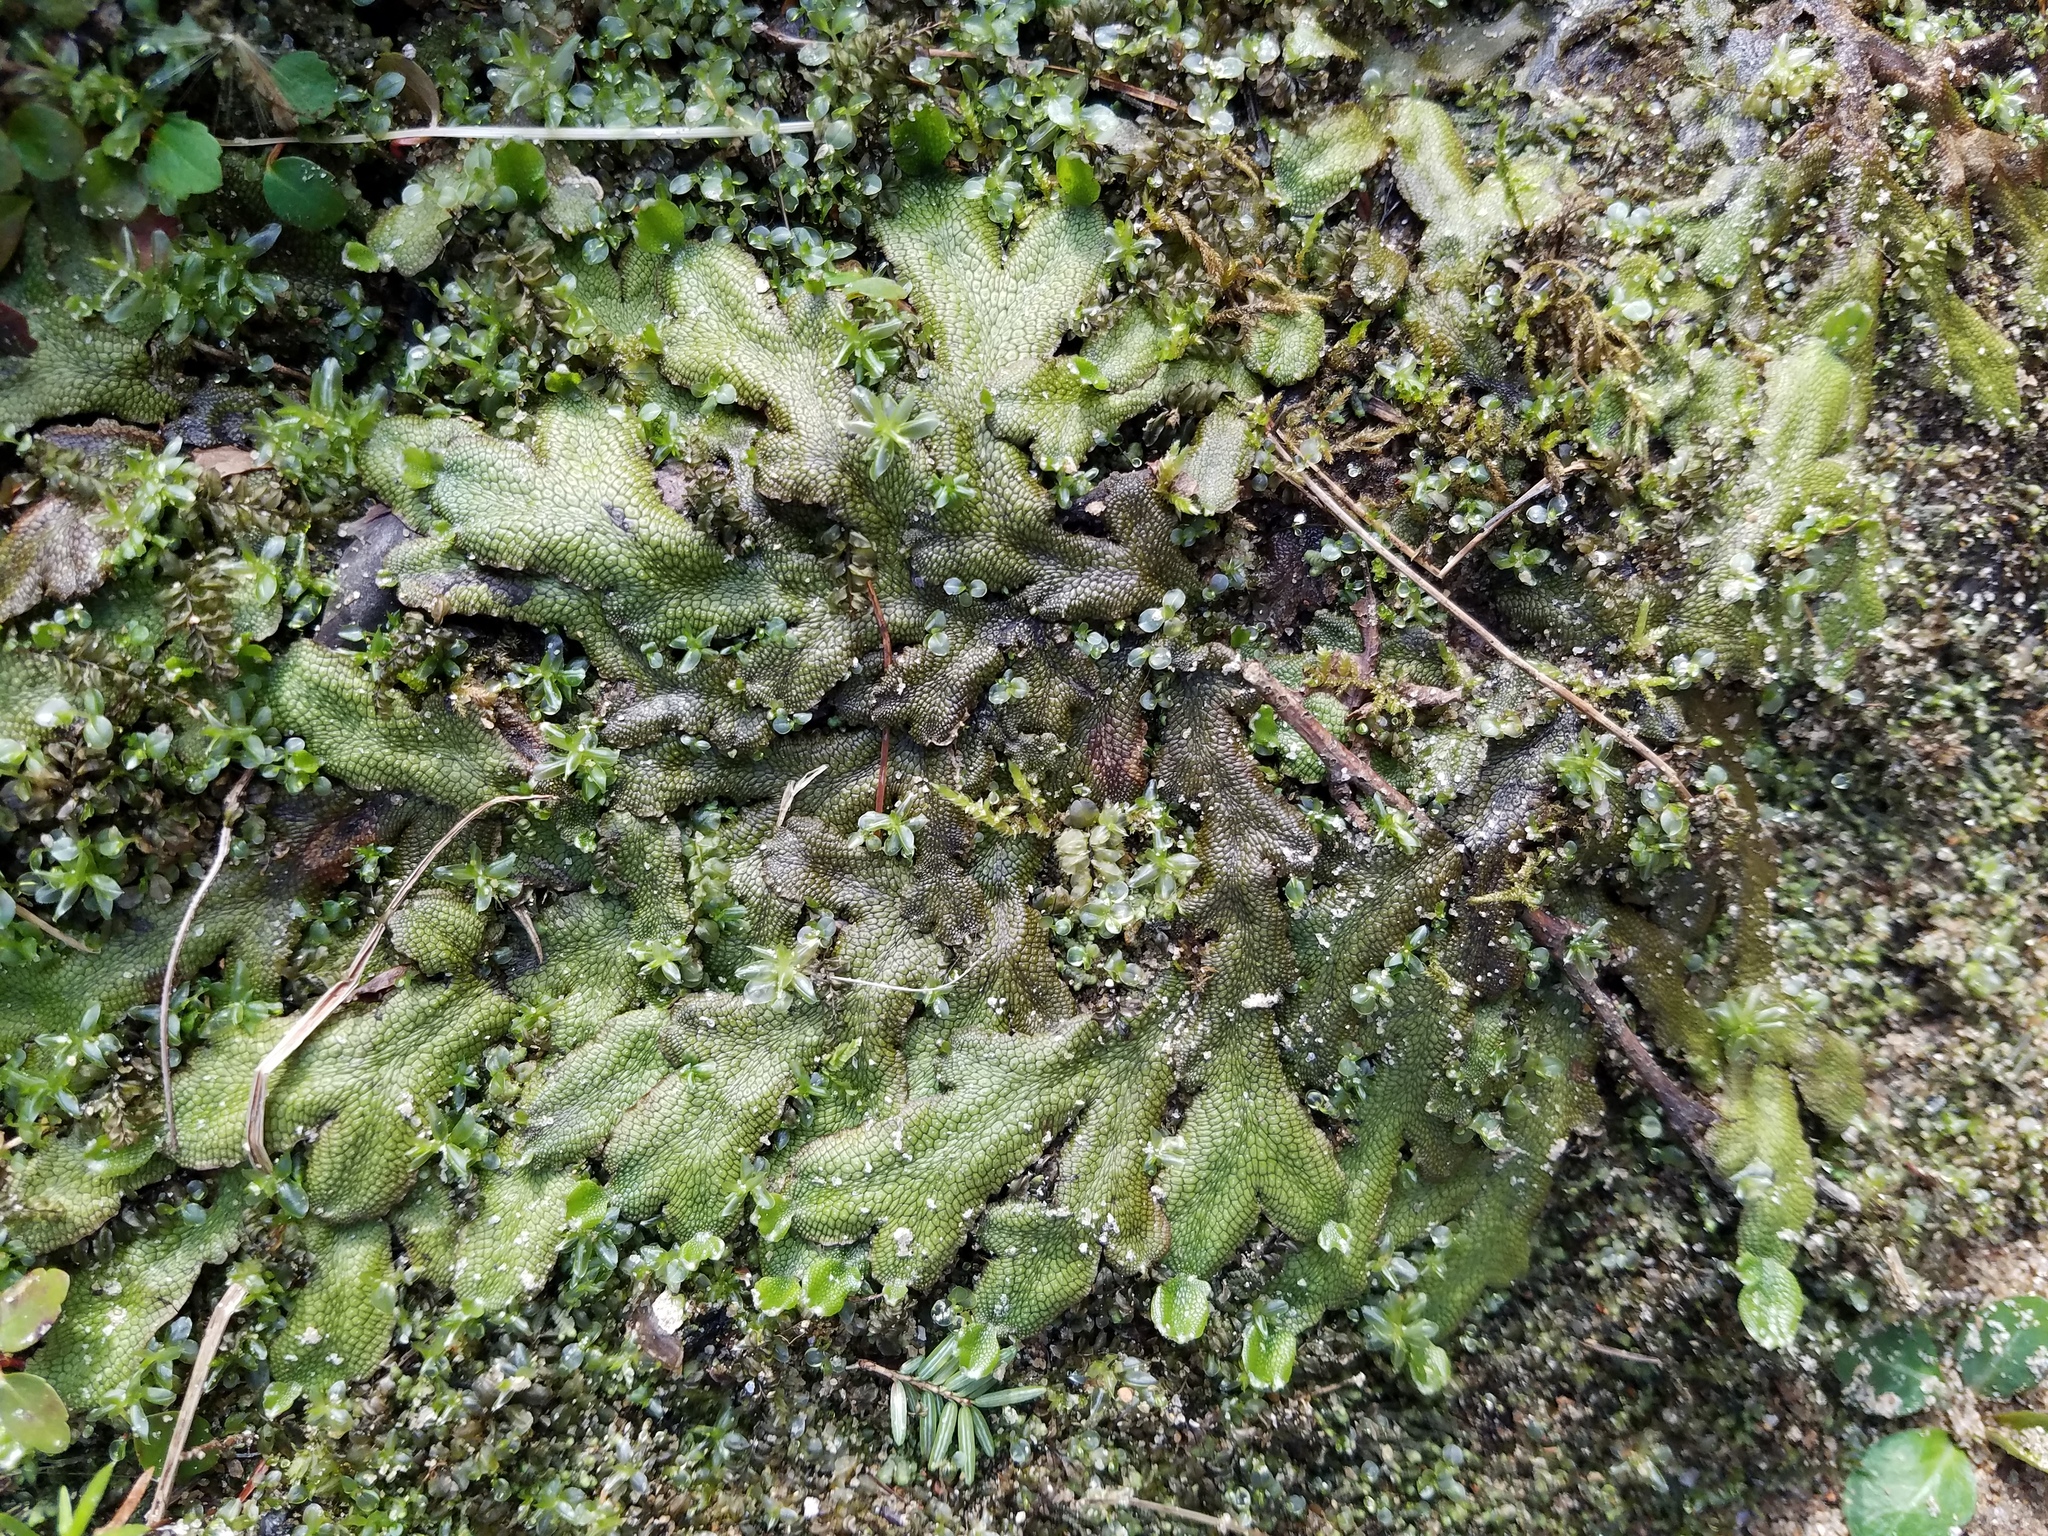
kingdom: Plantae
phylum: Marchantiophyta
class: Marchantiopsida
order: Marchantiales
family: Conocephalaceae
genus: Conocephalum
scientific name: Conocephalum salebrosum
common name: Cat-tongue liverwort
